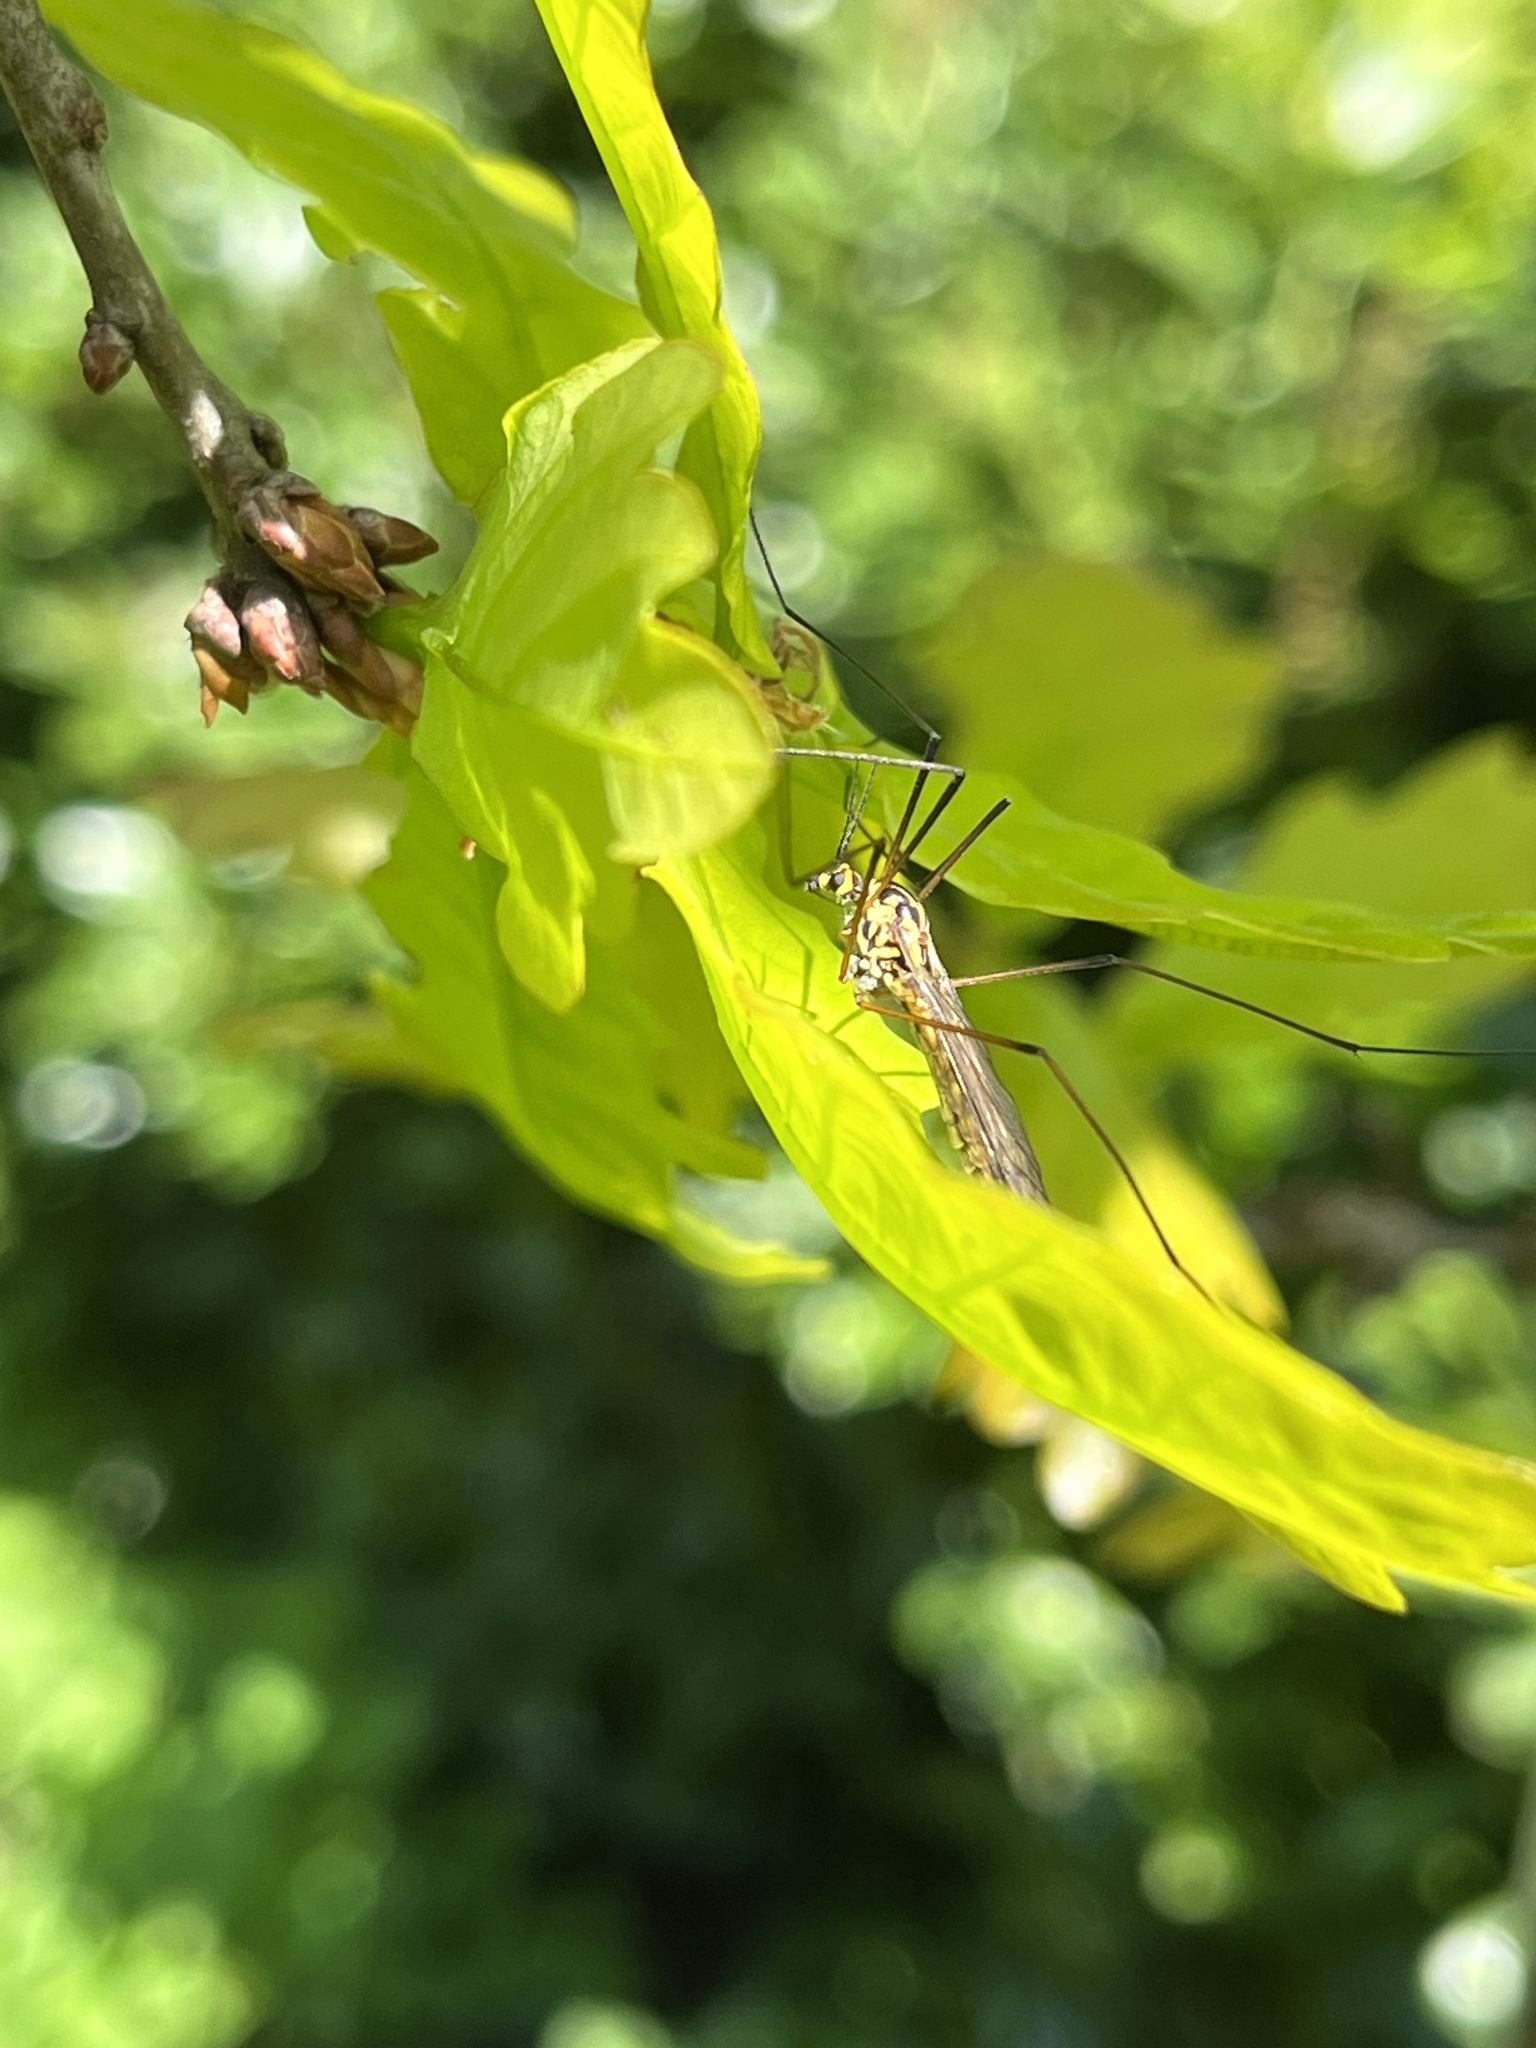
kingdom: Animalia
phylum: Arthropoda
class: Insecta
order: Diptera
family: Tipulidae
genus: Nephrotoma
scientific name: Nephrotoma appendiculata
